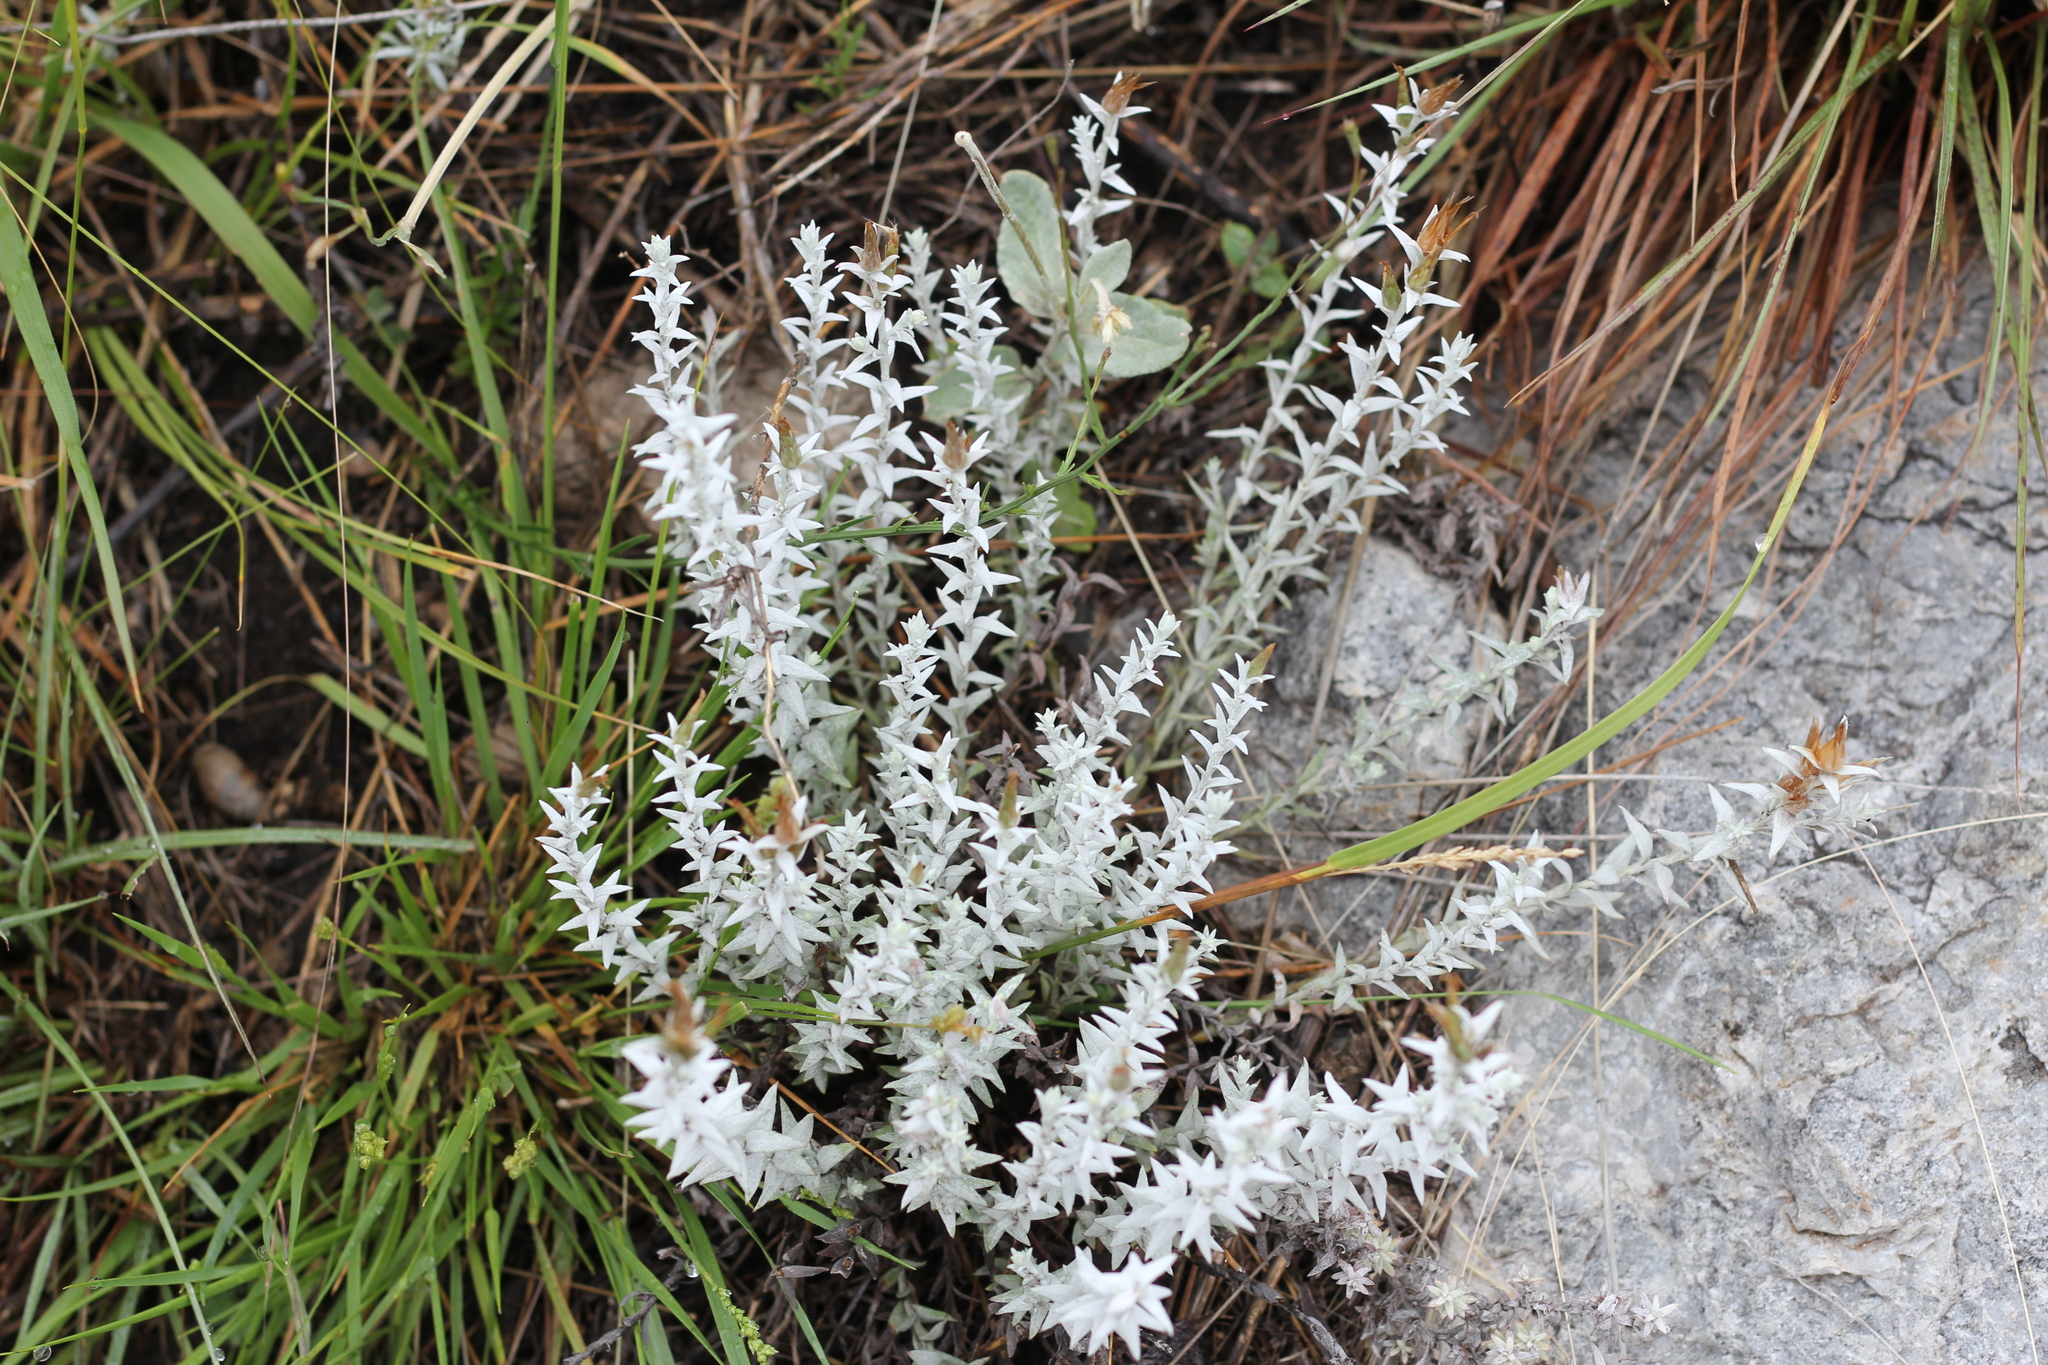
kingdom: Plantae
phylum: Tracheophyta
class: Magnoliopsida
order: Asterales
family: Asteraceae
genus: Lucilia
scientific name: Lucilia acutifolia
